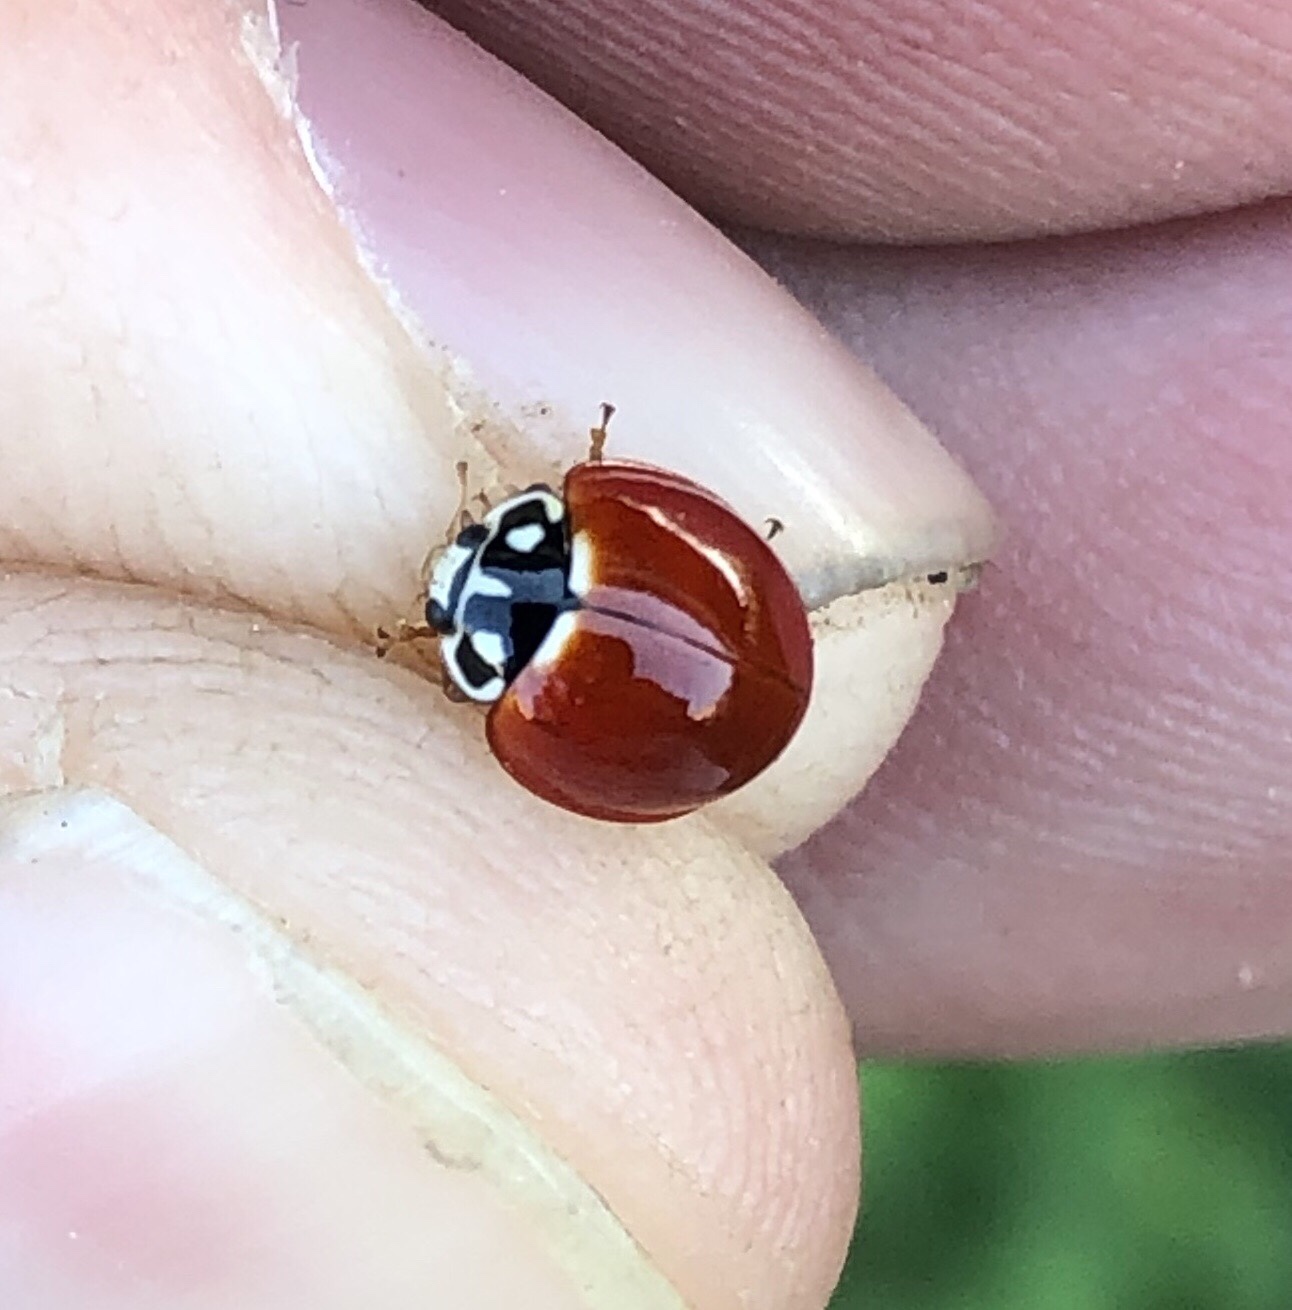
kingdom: Animalia
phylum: Arthropoda
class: Insecta
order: Coleoptera
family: Coccinellidae
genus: Cycloneda
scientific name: Cycloneda sanguinea
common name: Ladybird beetle
